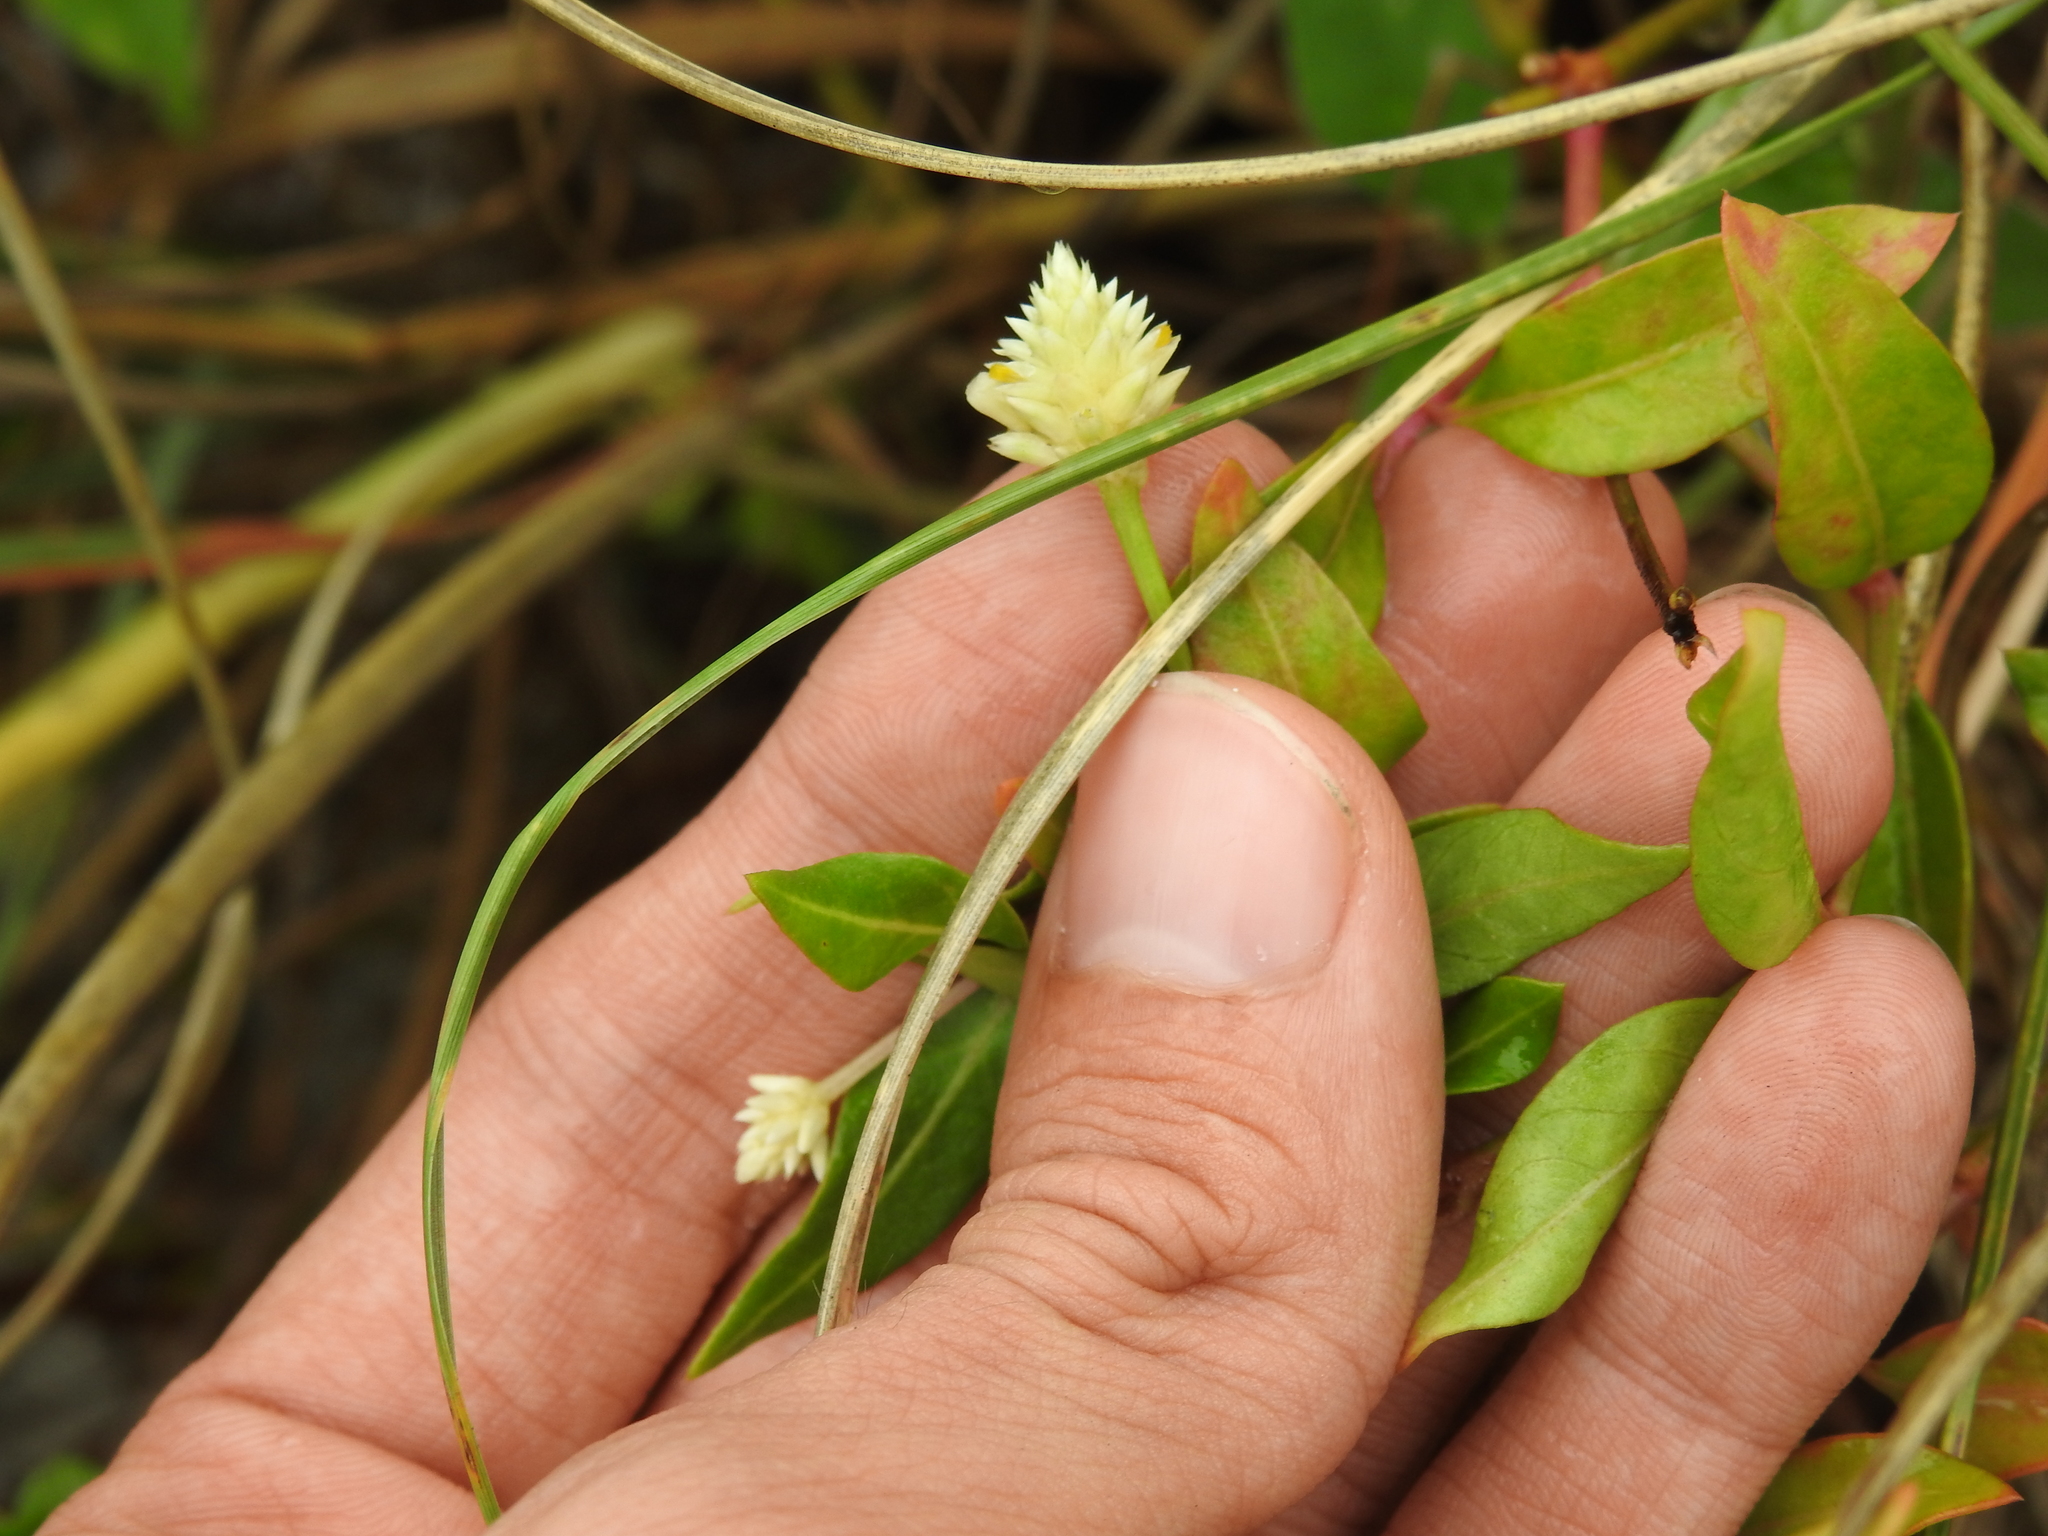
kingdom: Plantae
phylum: Tracheophyta
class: Magnoliopsida
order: Caryophyllales
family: Amaranthaceae
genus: Alternanthera
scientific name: Alternanthera flavescens
